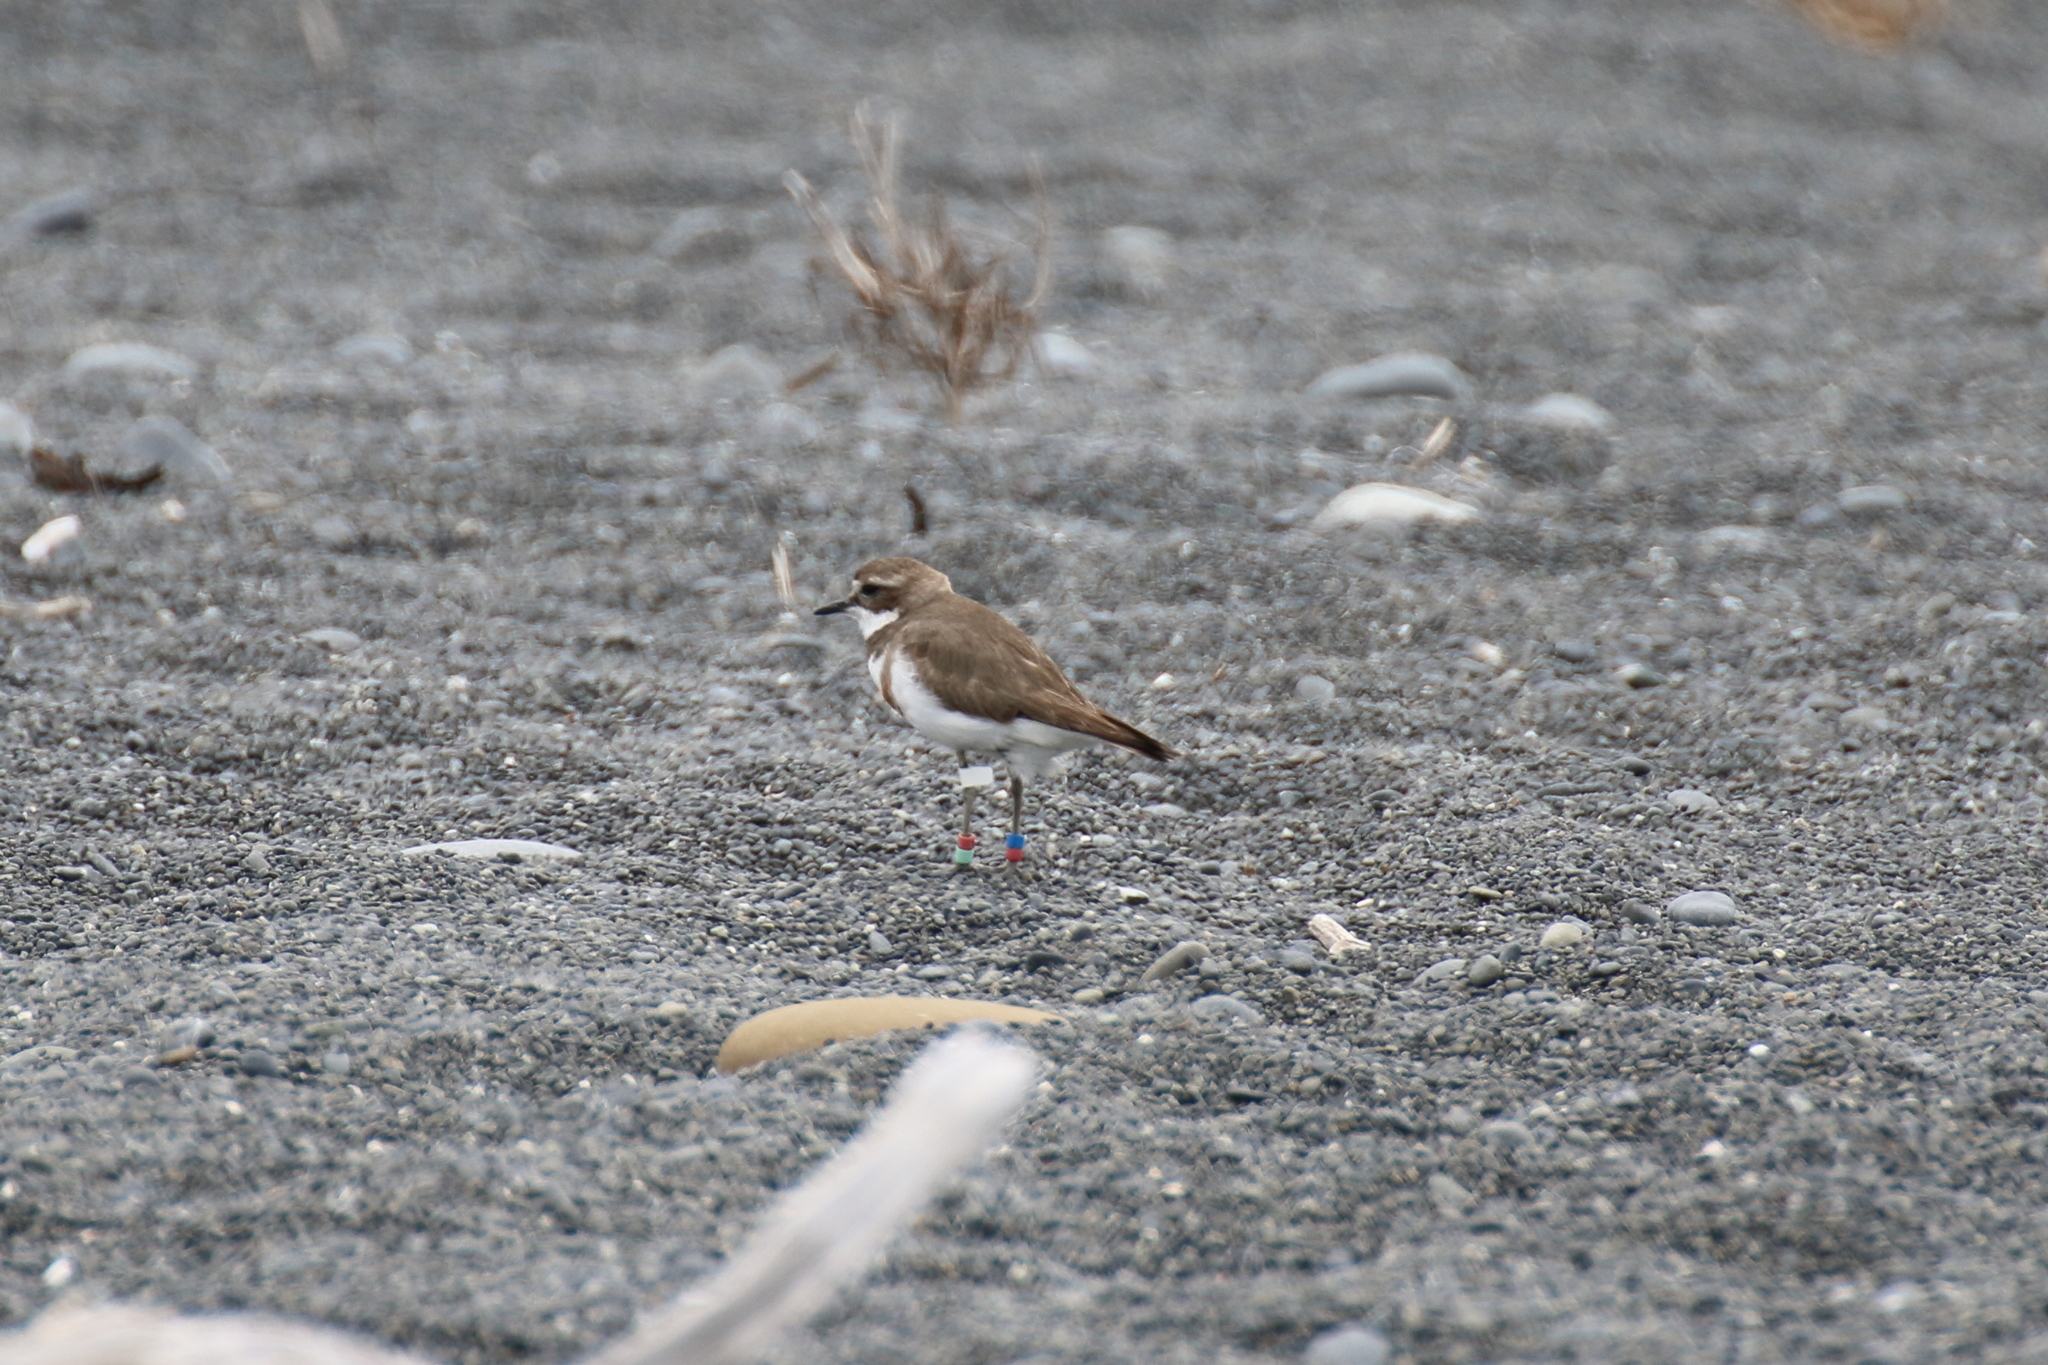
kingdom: Animalia
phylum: Chordata
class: Aves
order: Charadriiformes
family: Charadriidae
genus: Anarhynchus
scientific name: Anarhynchus
